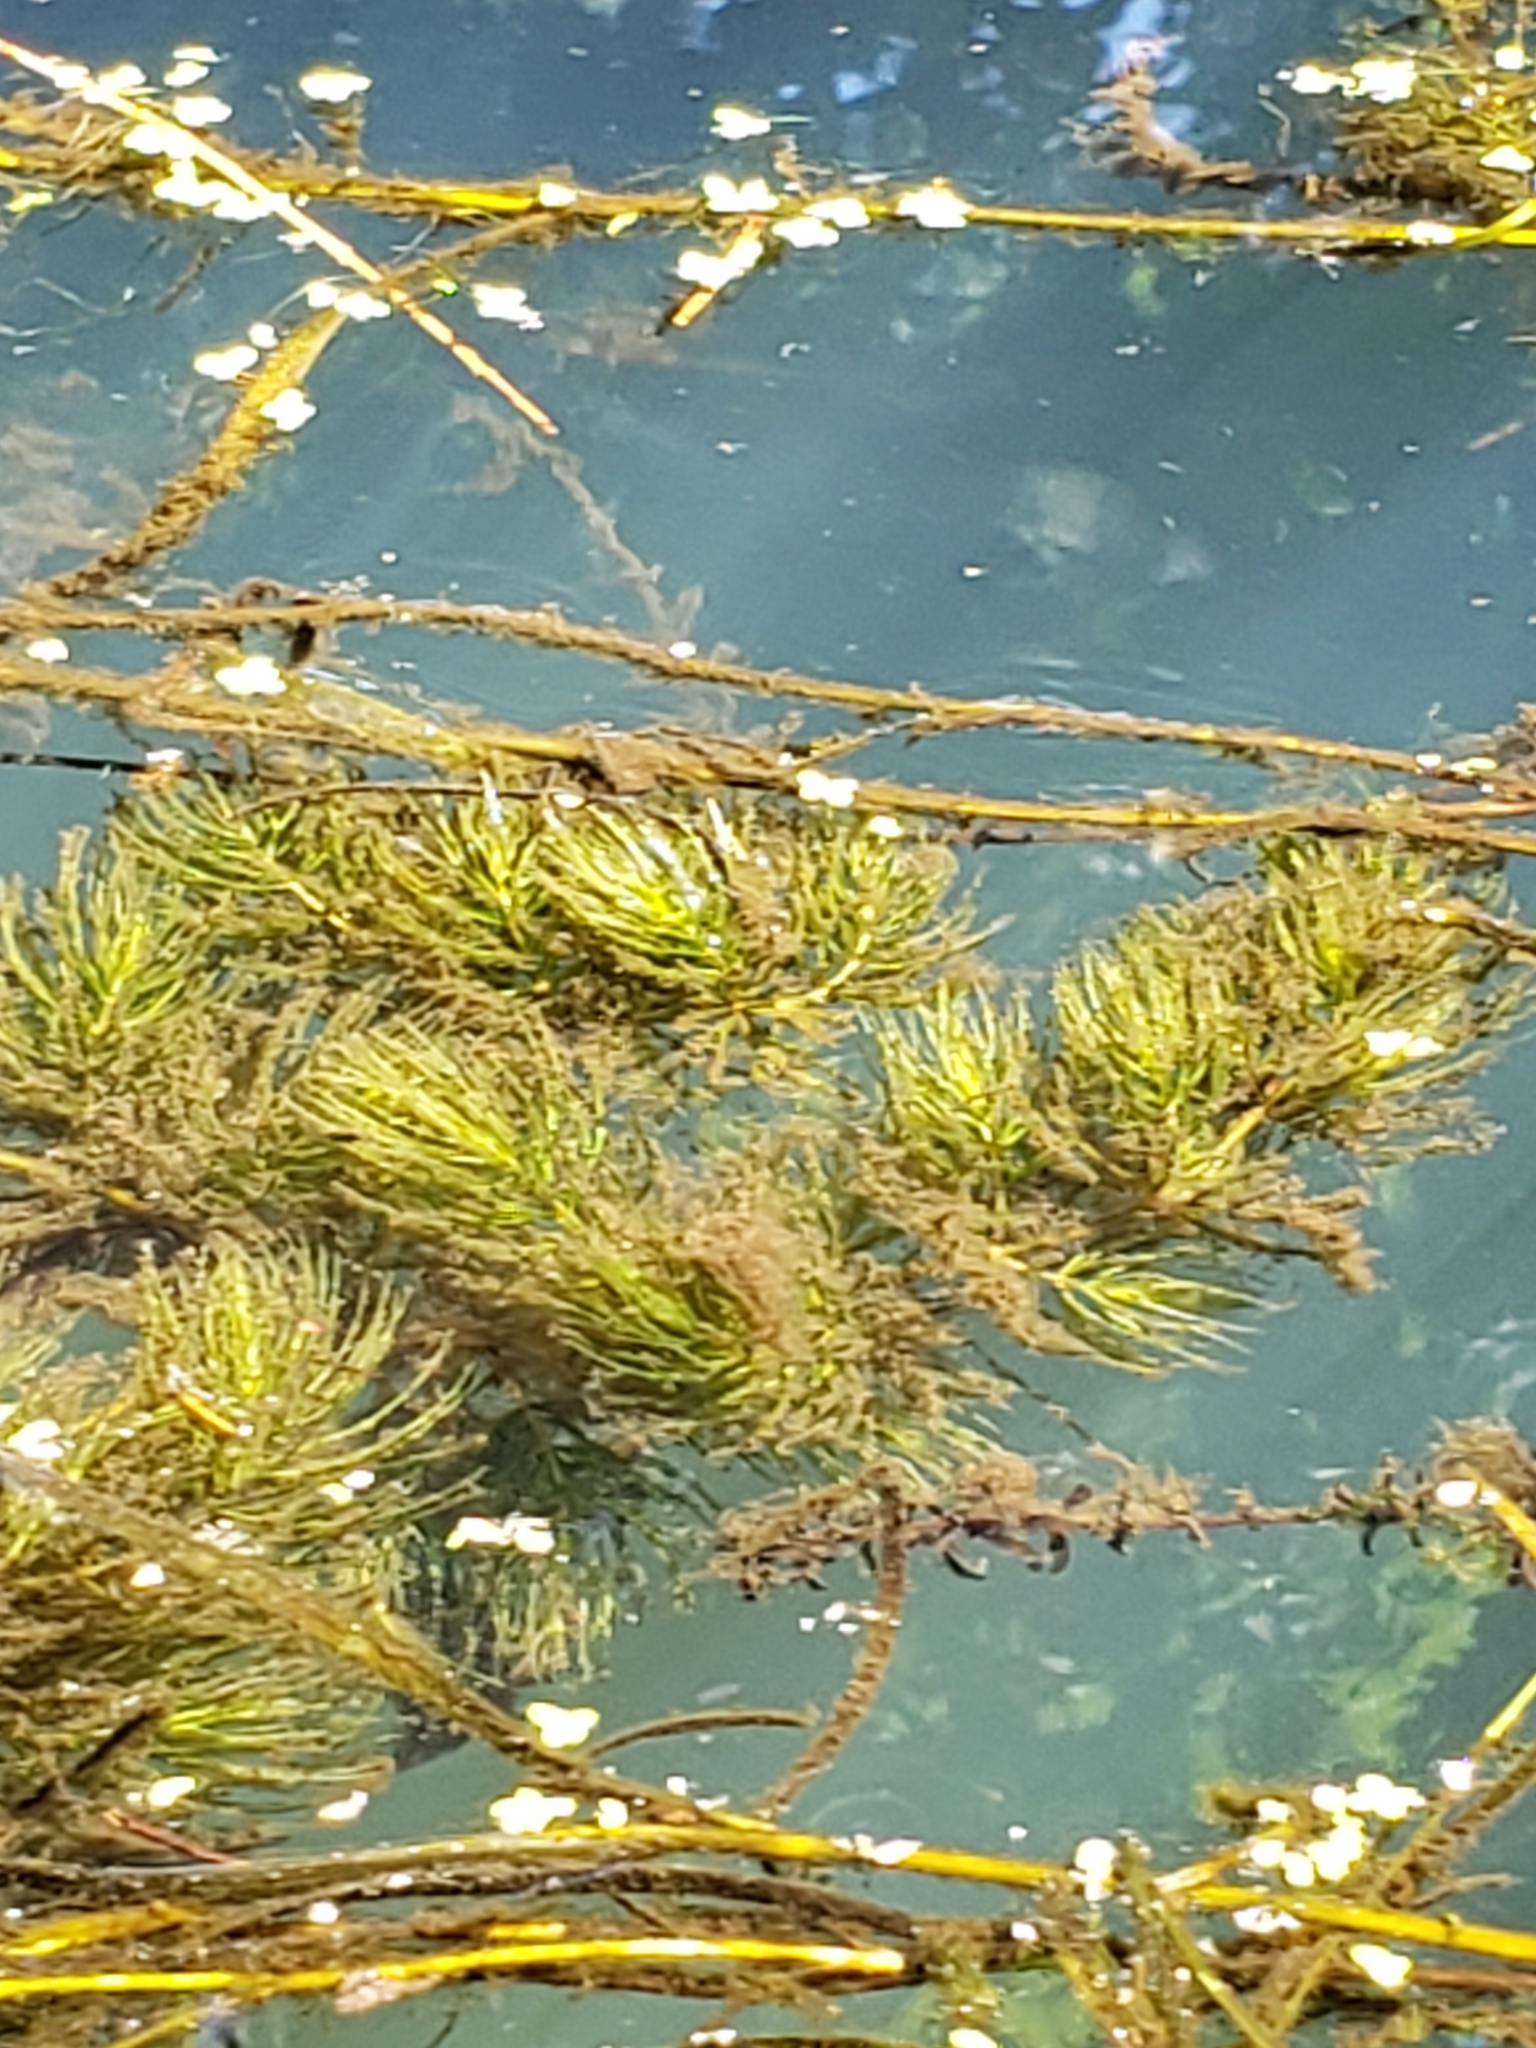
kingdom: Plantae
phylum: Tracheophyta
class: Magnoliopsida
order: Ceratophyllales
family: Ceratophyllaceae
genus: Ceratophyllum
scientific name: Ceratophyllum demersum
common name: Rigid hornwort
